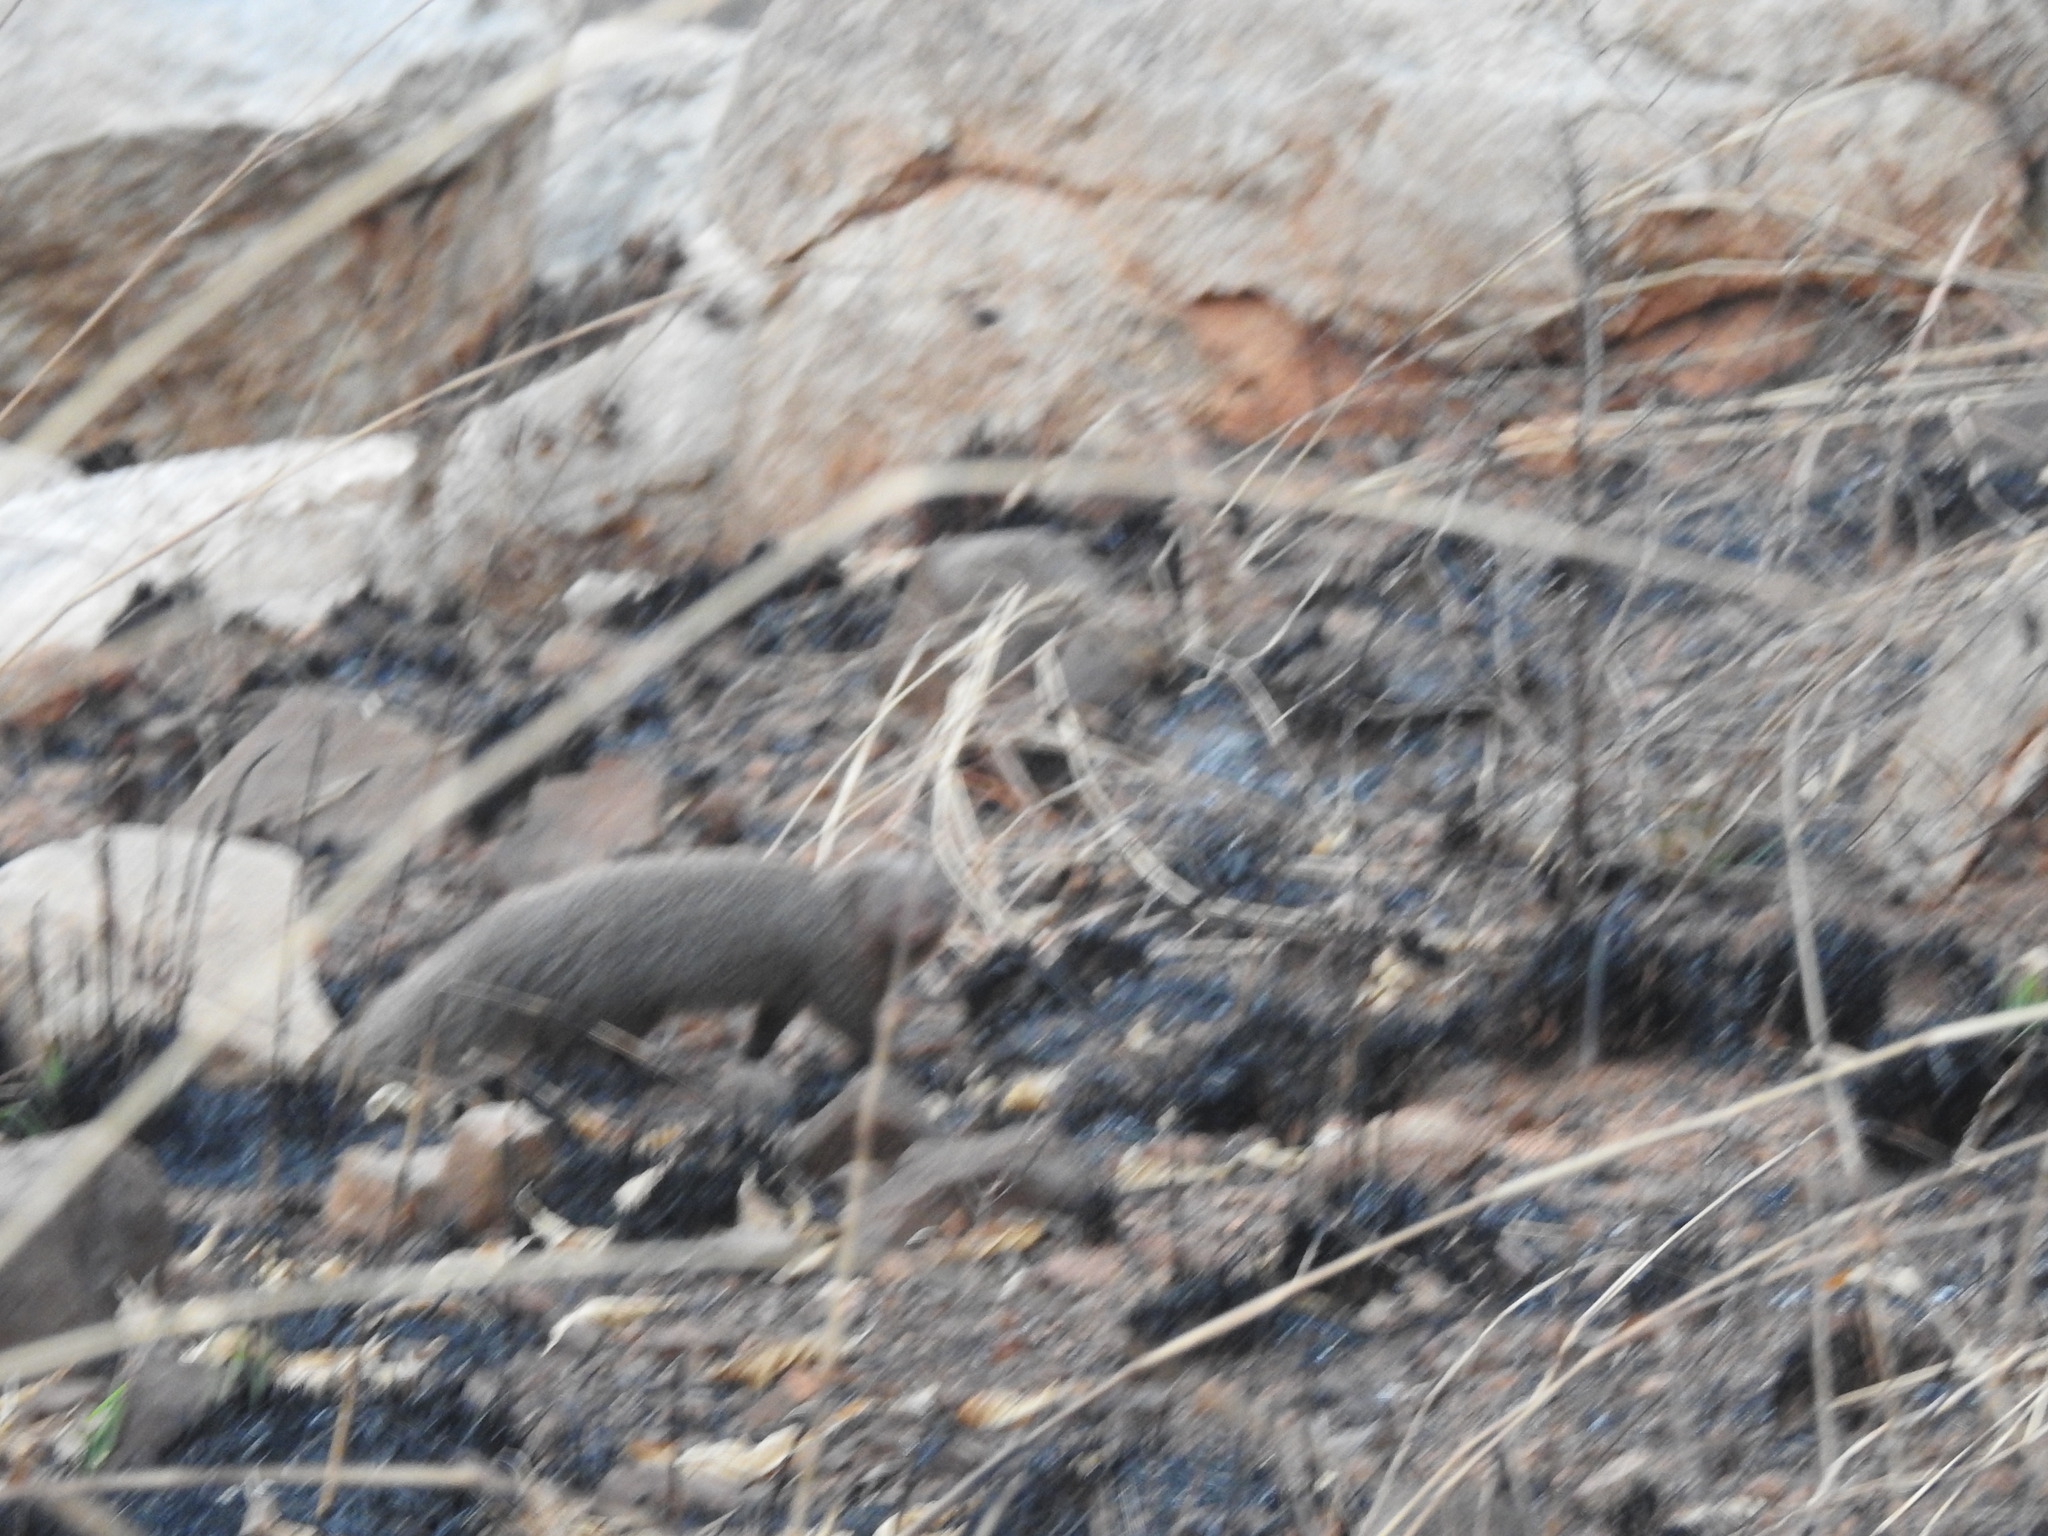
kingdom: Animalia
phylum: Chordata
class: Mammalia
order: Carnivora
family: Herpestidae
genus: Herpestes
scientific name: Herpestes smithii
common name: Ruddy mongoose
